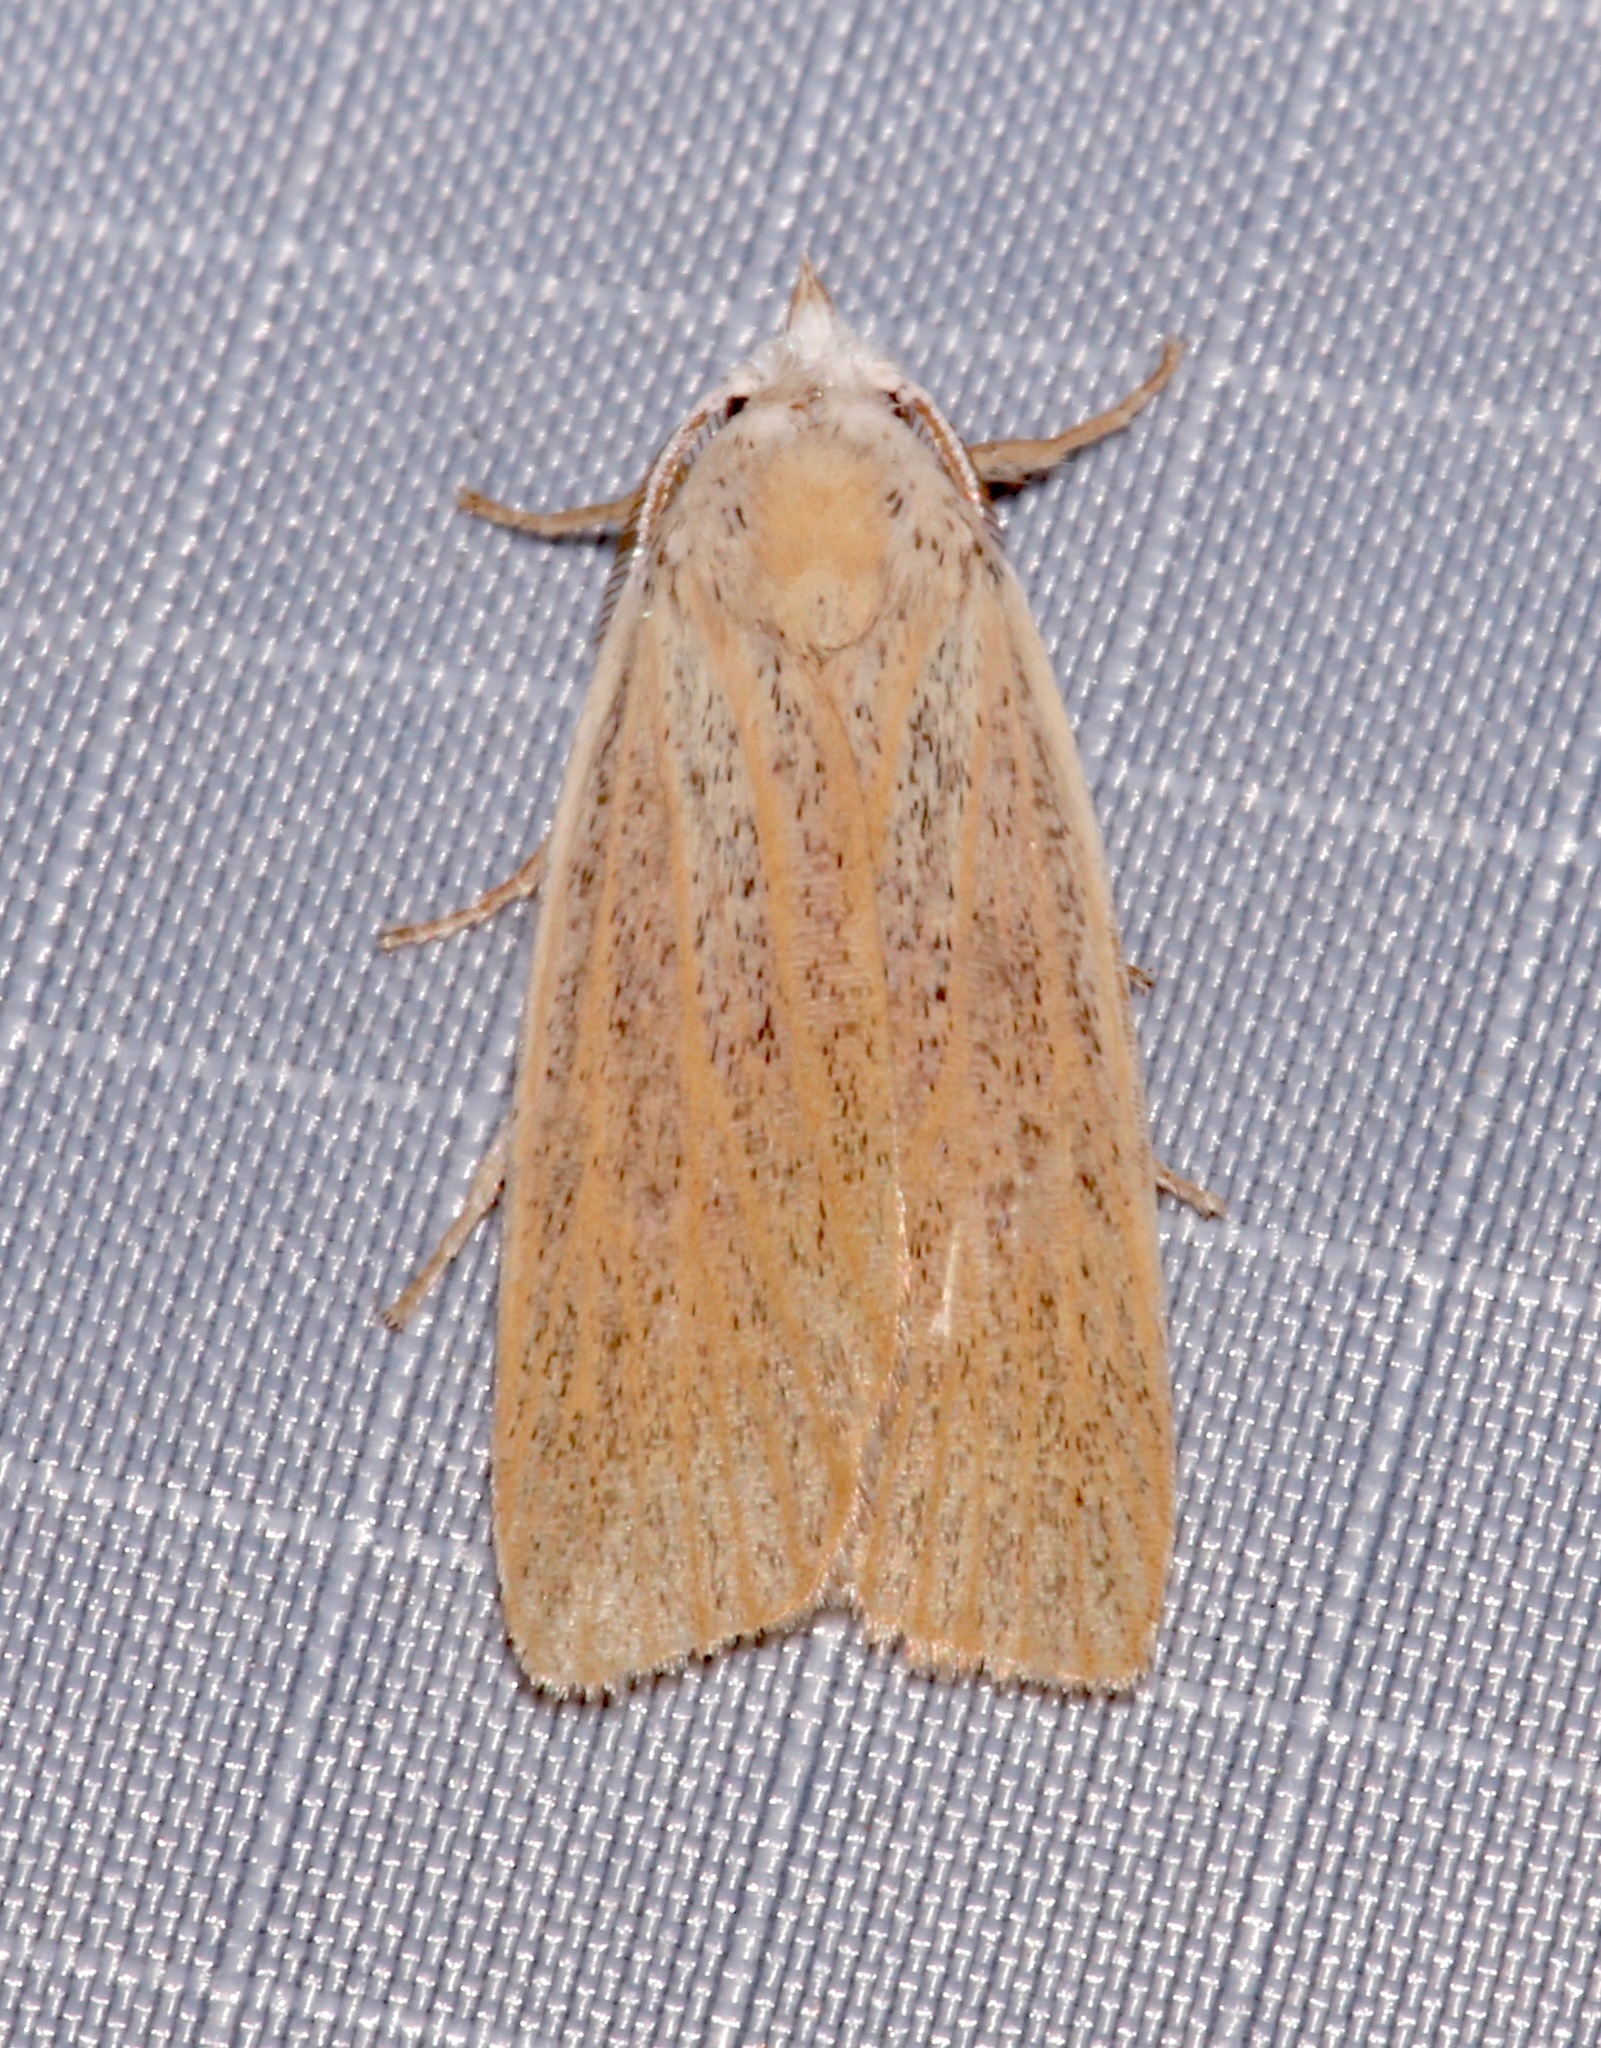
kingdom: Animalia
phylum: Arthropoda
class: Insecta
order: Lepidoptera
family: Erebidae
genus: Palpidia
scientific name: Palpidia pallidior
